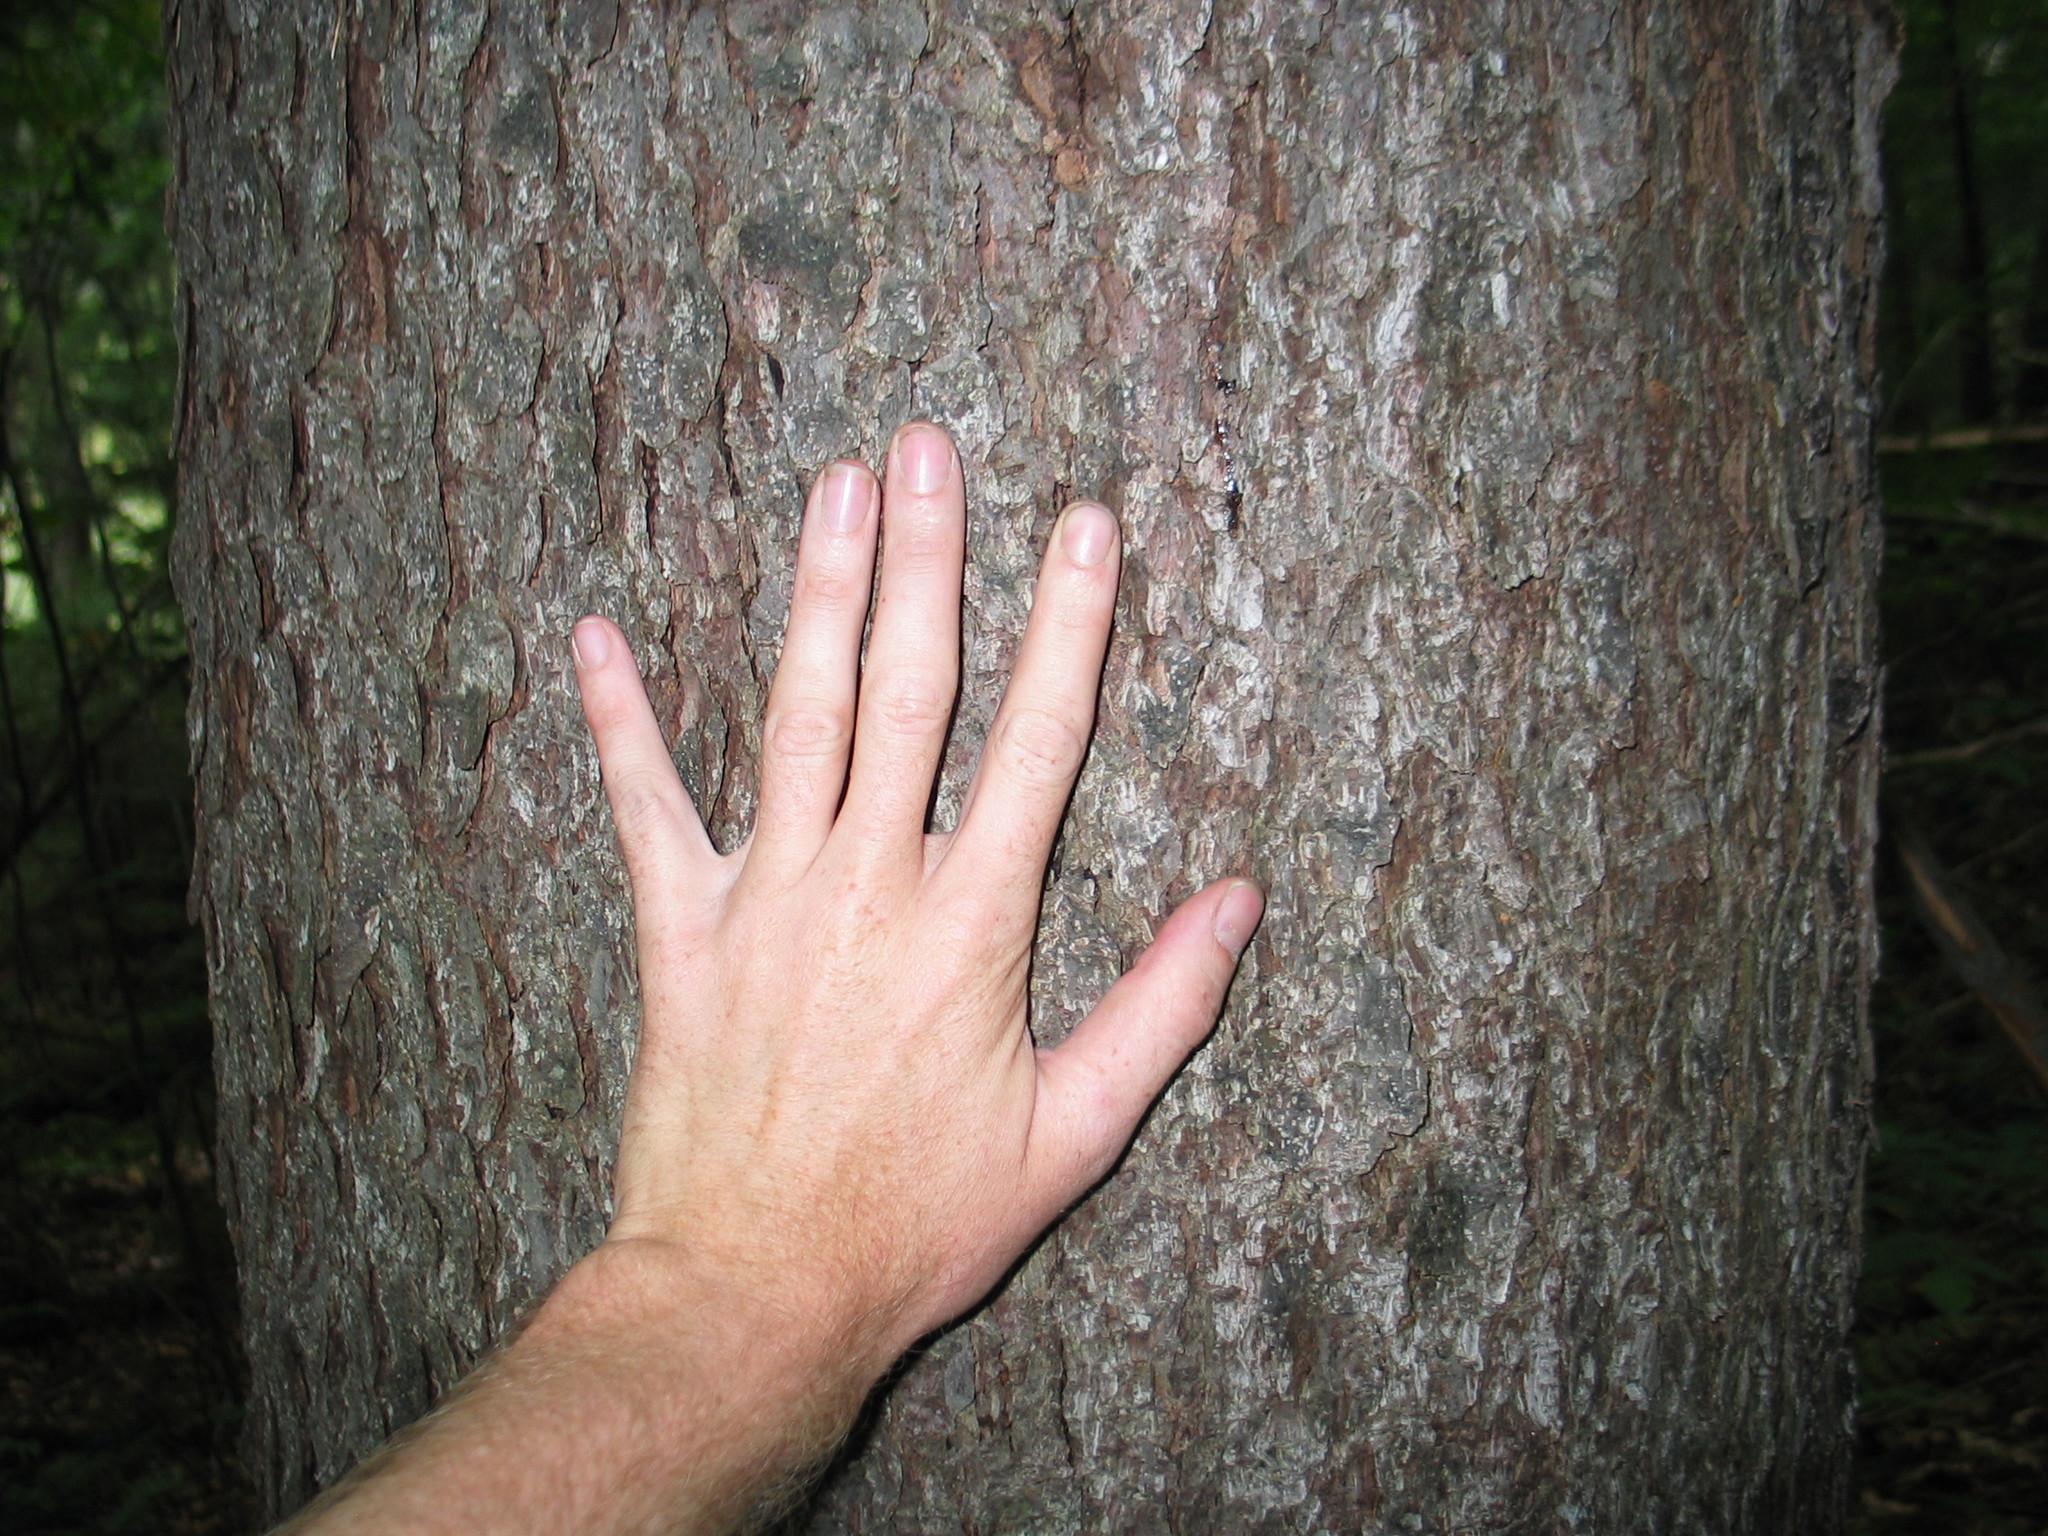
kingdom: Plantae
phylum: Tracheophyta
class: Pinopsida
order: Pinales
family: Pinaceae
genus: Picea
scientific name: Picea rubens
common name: Red spruce
